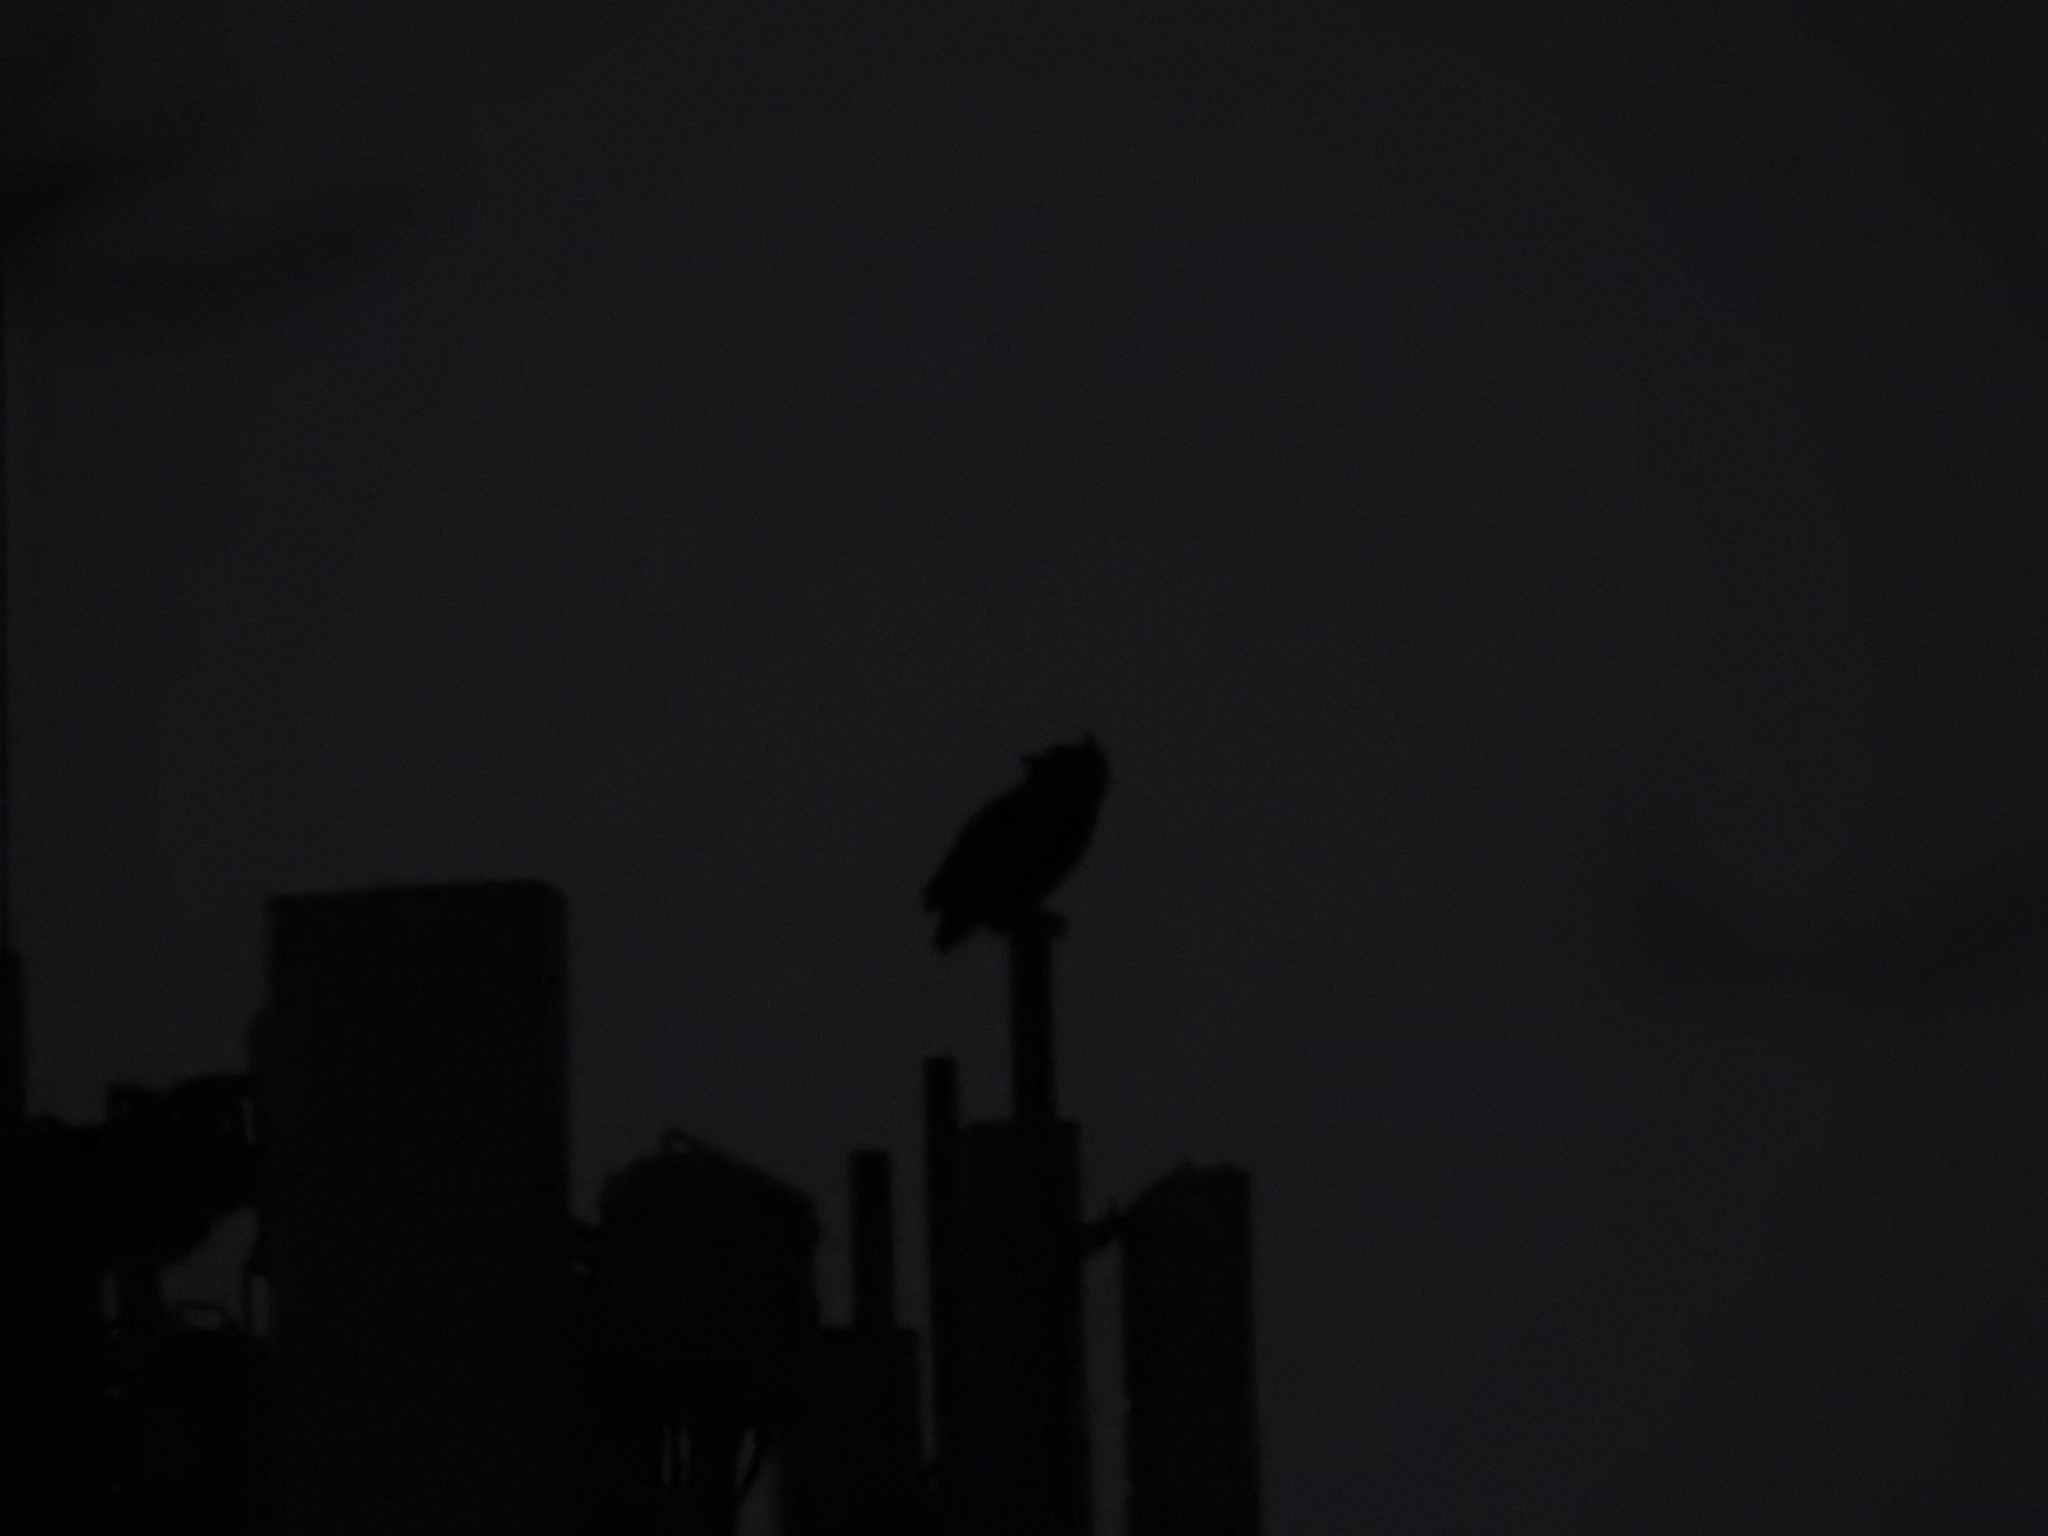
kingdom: Animalia
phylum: Chordata
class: Aves
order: Strigiformes
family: Strigidae
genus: Bubo
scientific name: Bubo virginianus
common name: Great horned owl
